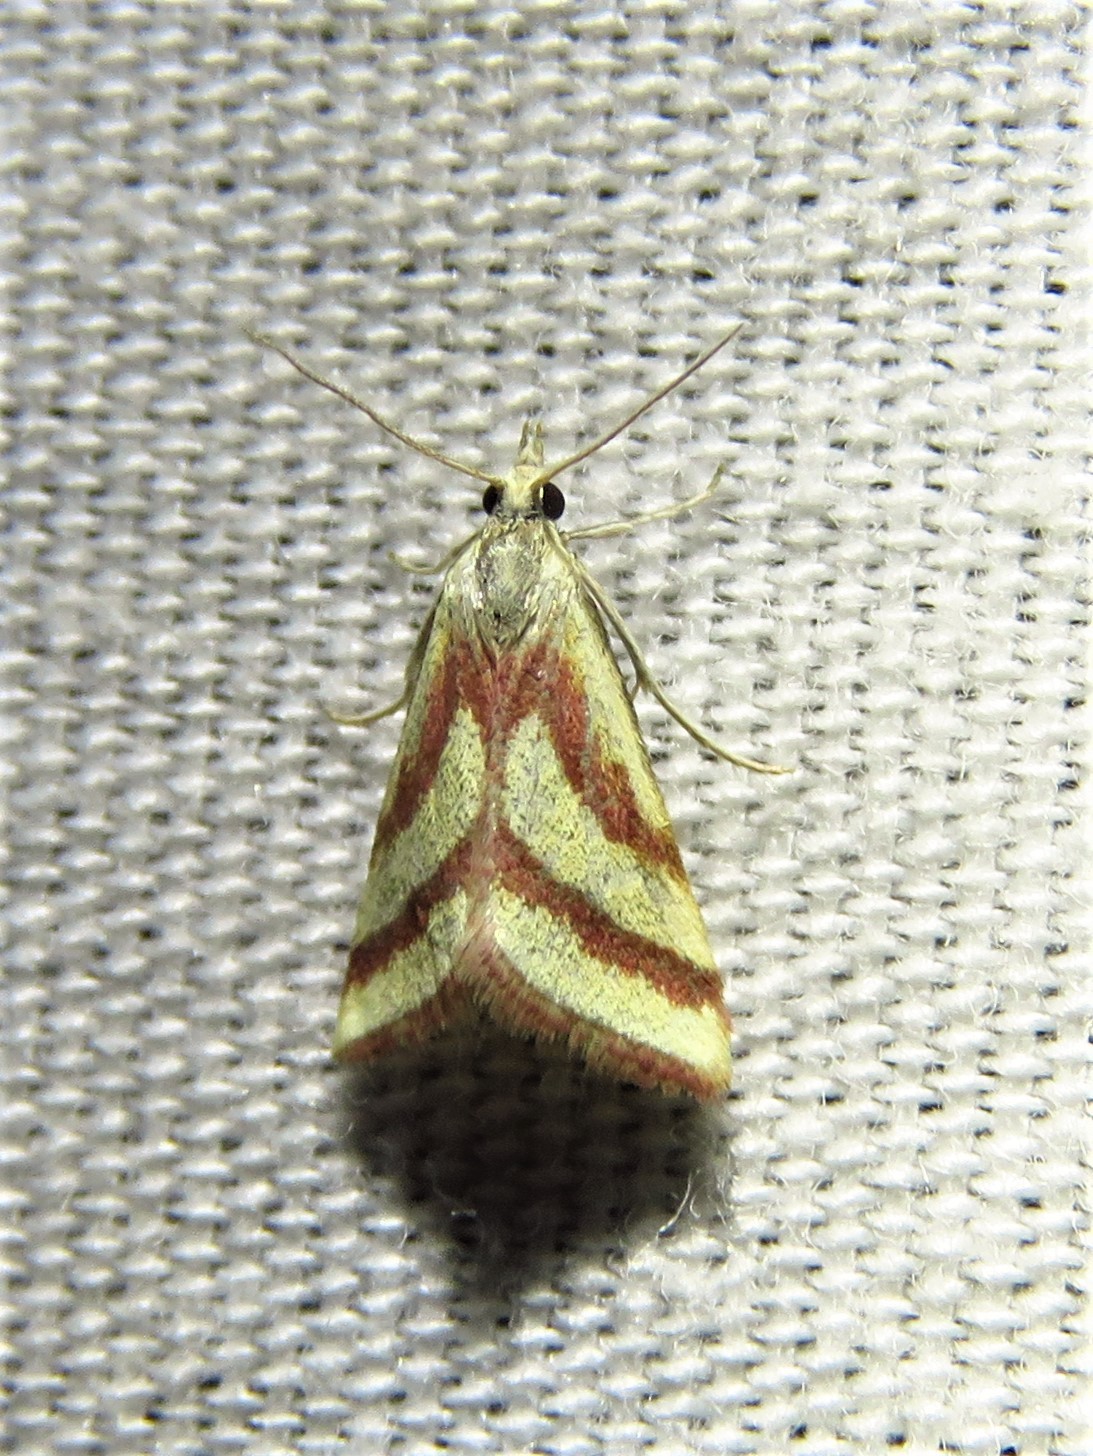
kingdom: Animalia
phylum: Arthropoda
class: Insecta
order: Lepidoptera
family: Crambidae
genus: Microtheoris
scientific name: Microtheoris vibicalis
